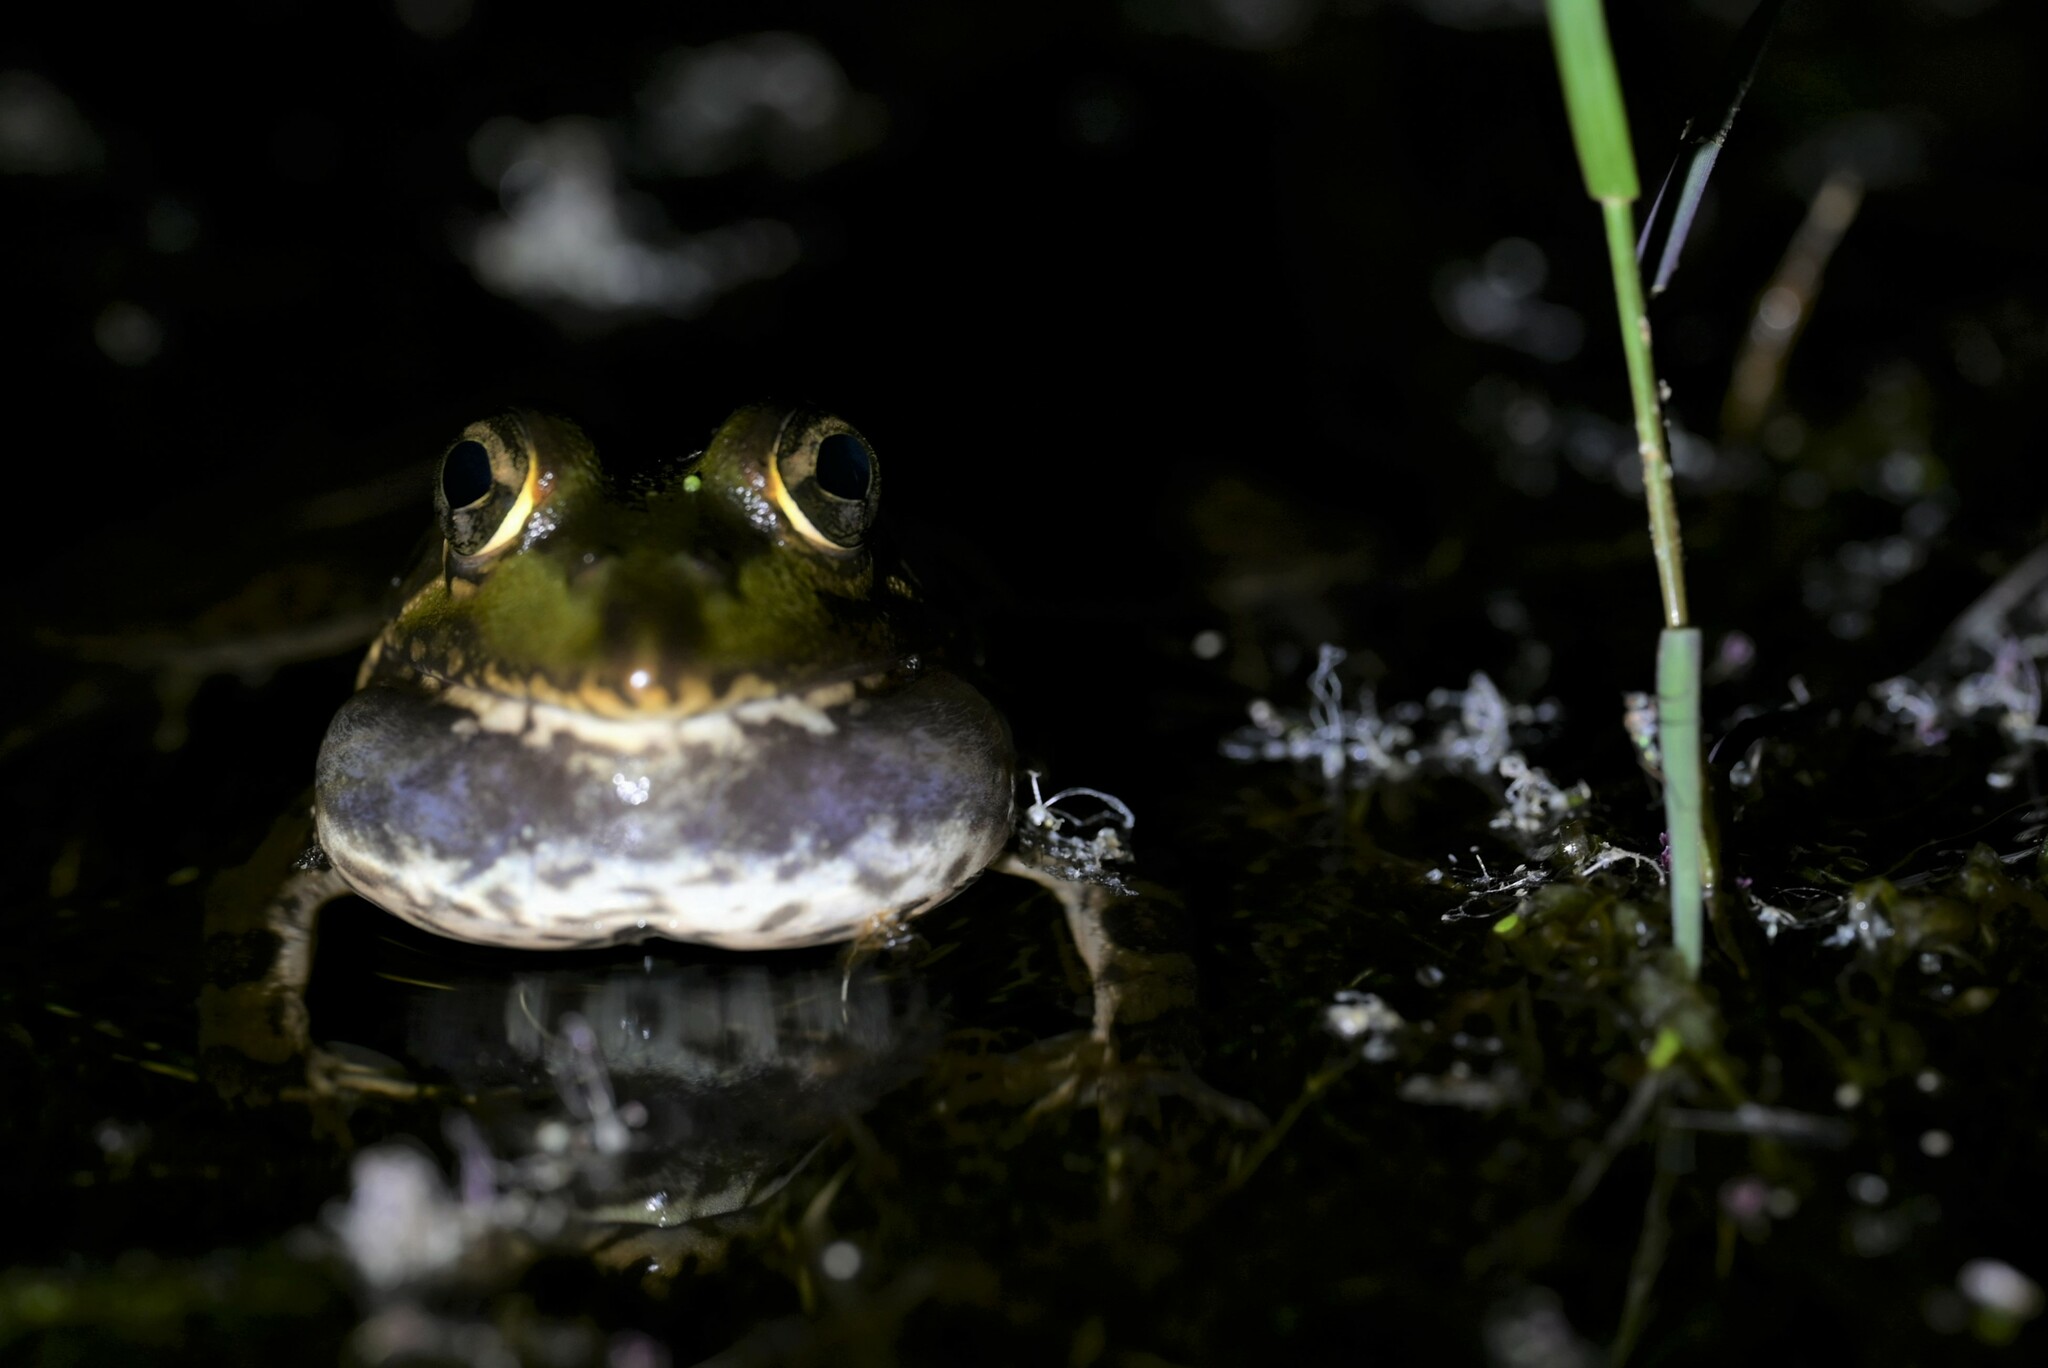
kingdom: Animalia
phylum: Chordata
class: Amphibia
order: Anura
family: Pyxicephalidae
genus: Amietia
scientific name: Amietia poyntoni
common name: Poynton's river frog
